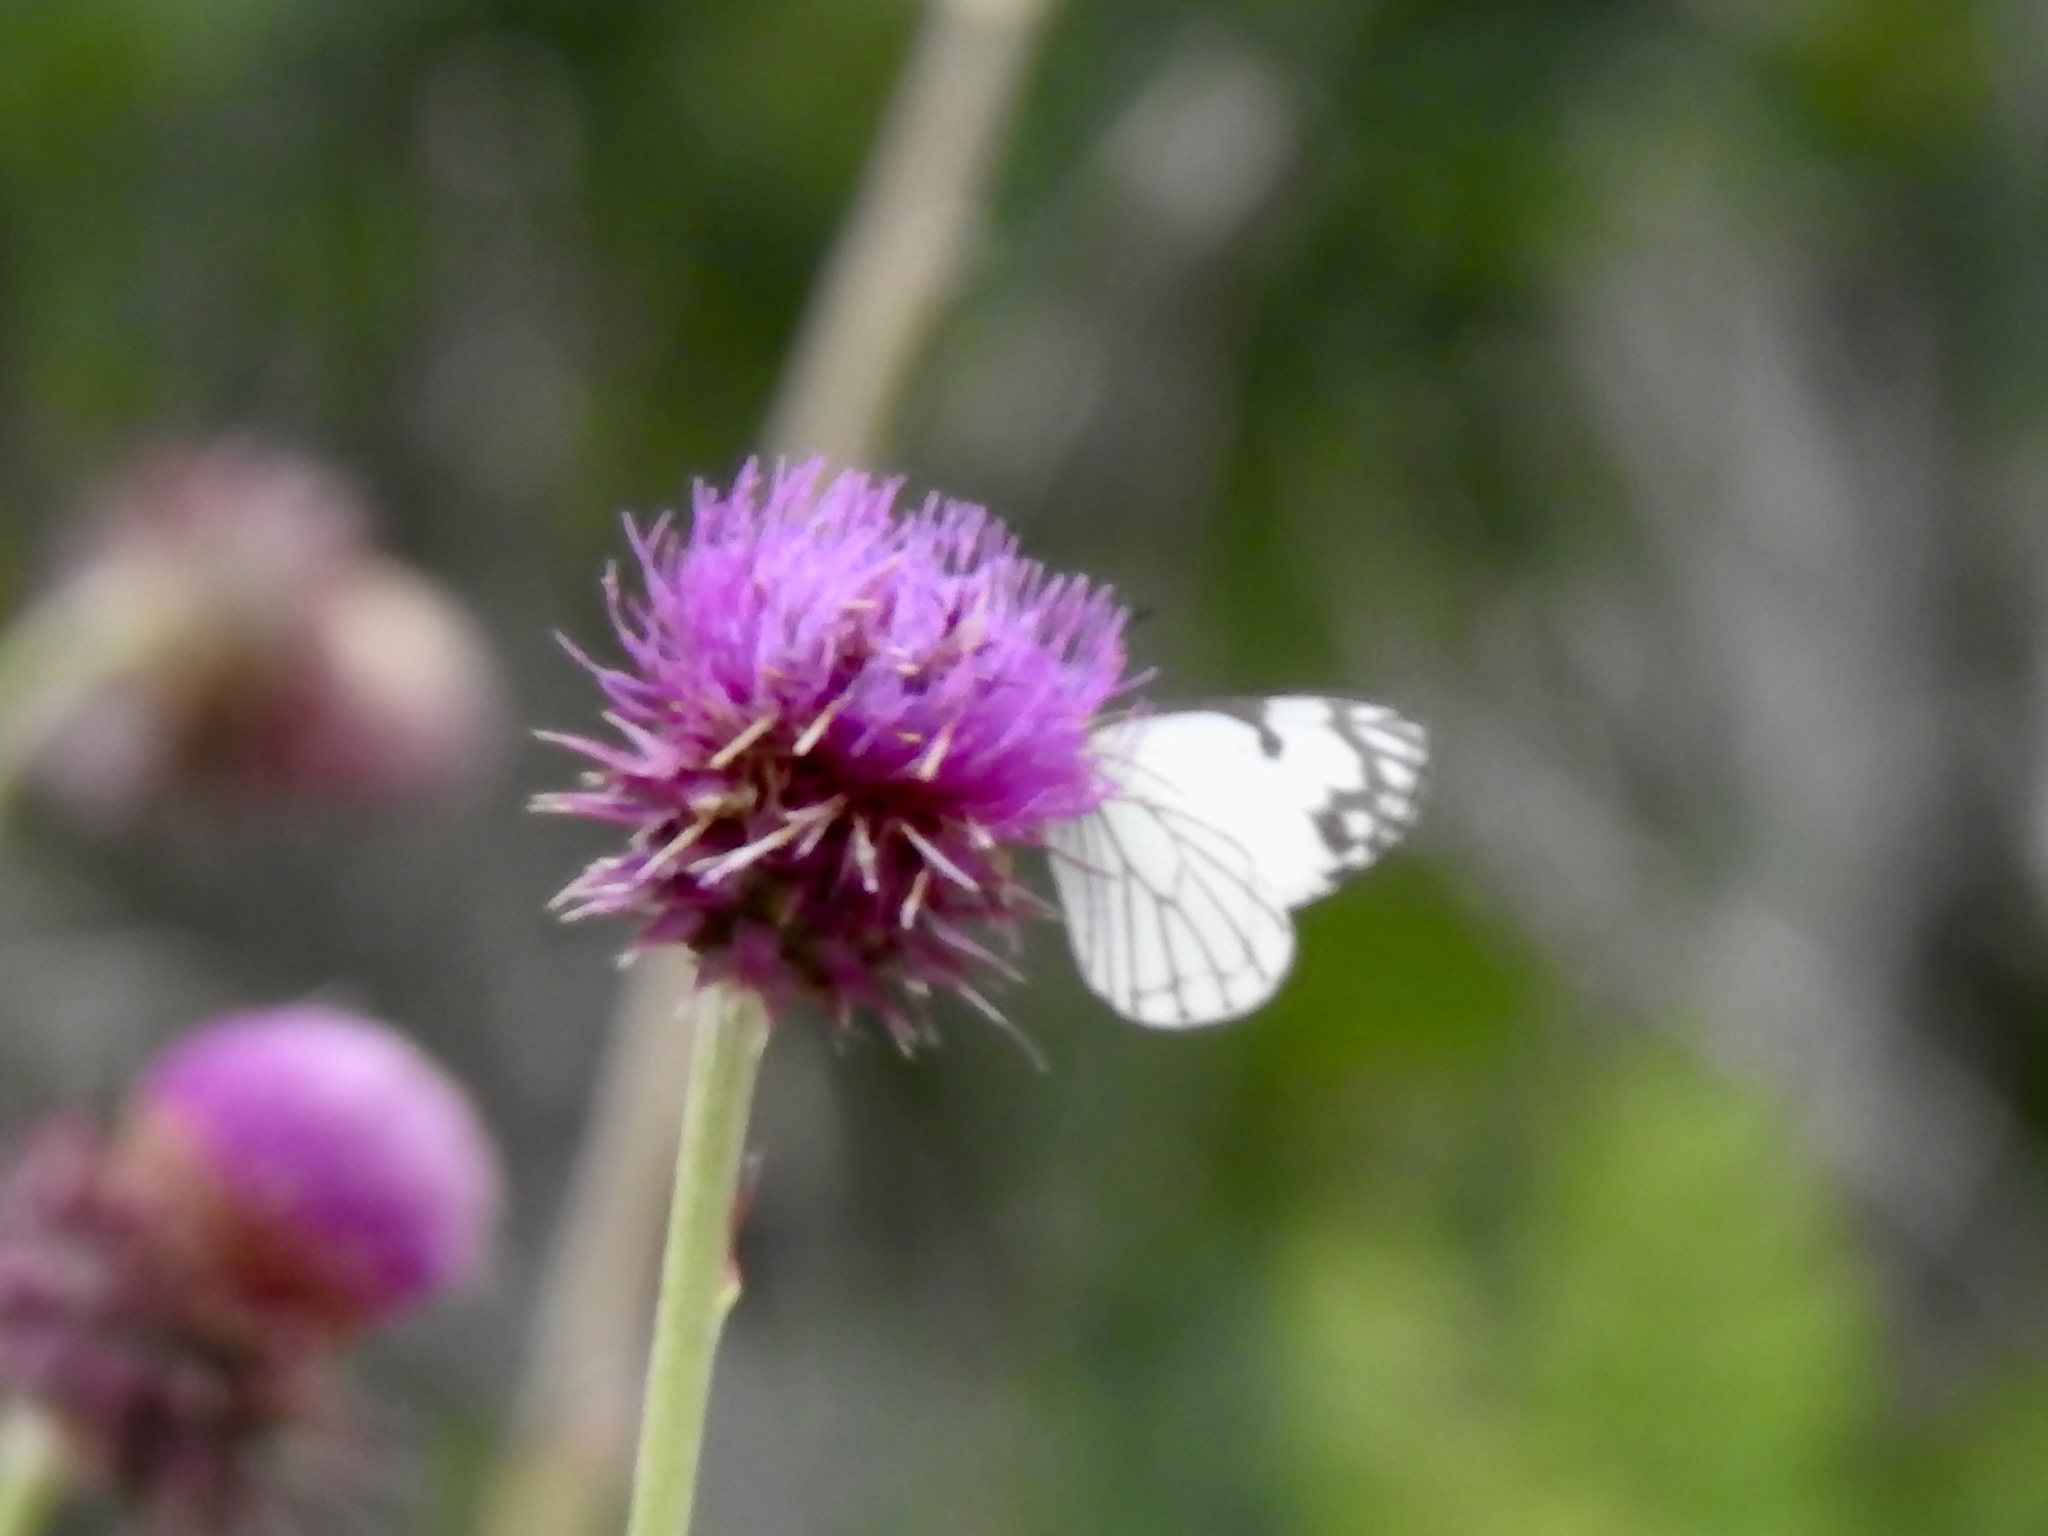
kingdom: Animalia
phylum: Arthropoda
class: Insecta
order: Lepidoptera
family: Pieridae
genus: Neophasia
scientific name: Neophasia menapia
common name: Pine white
